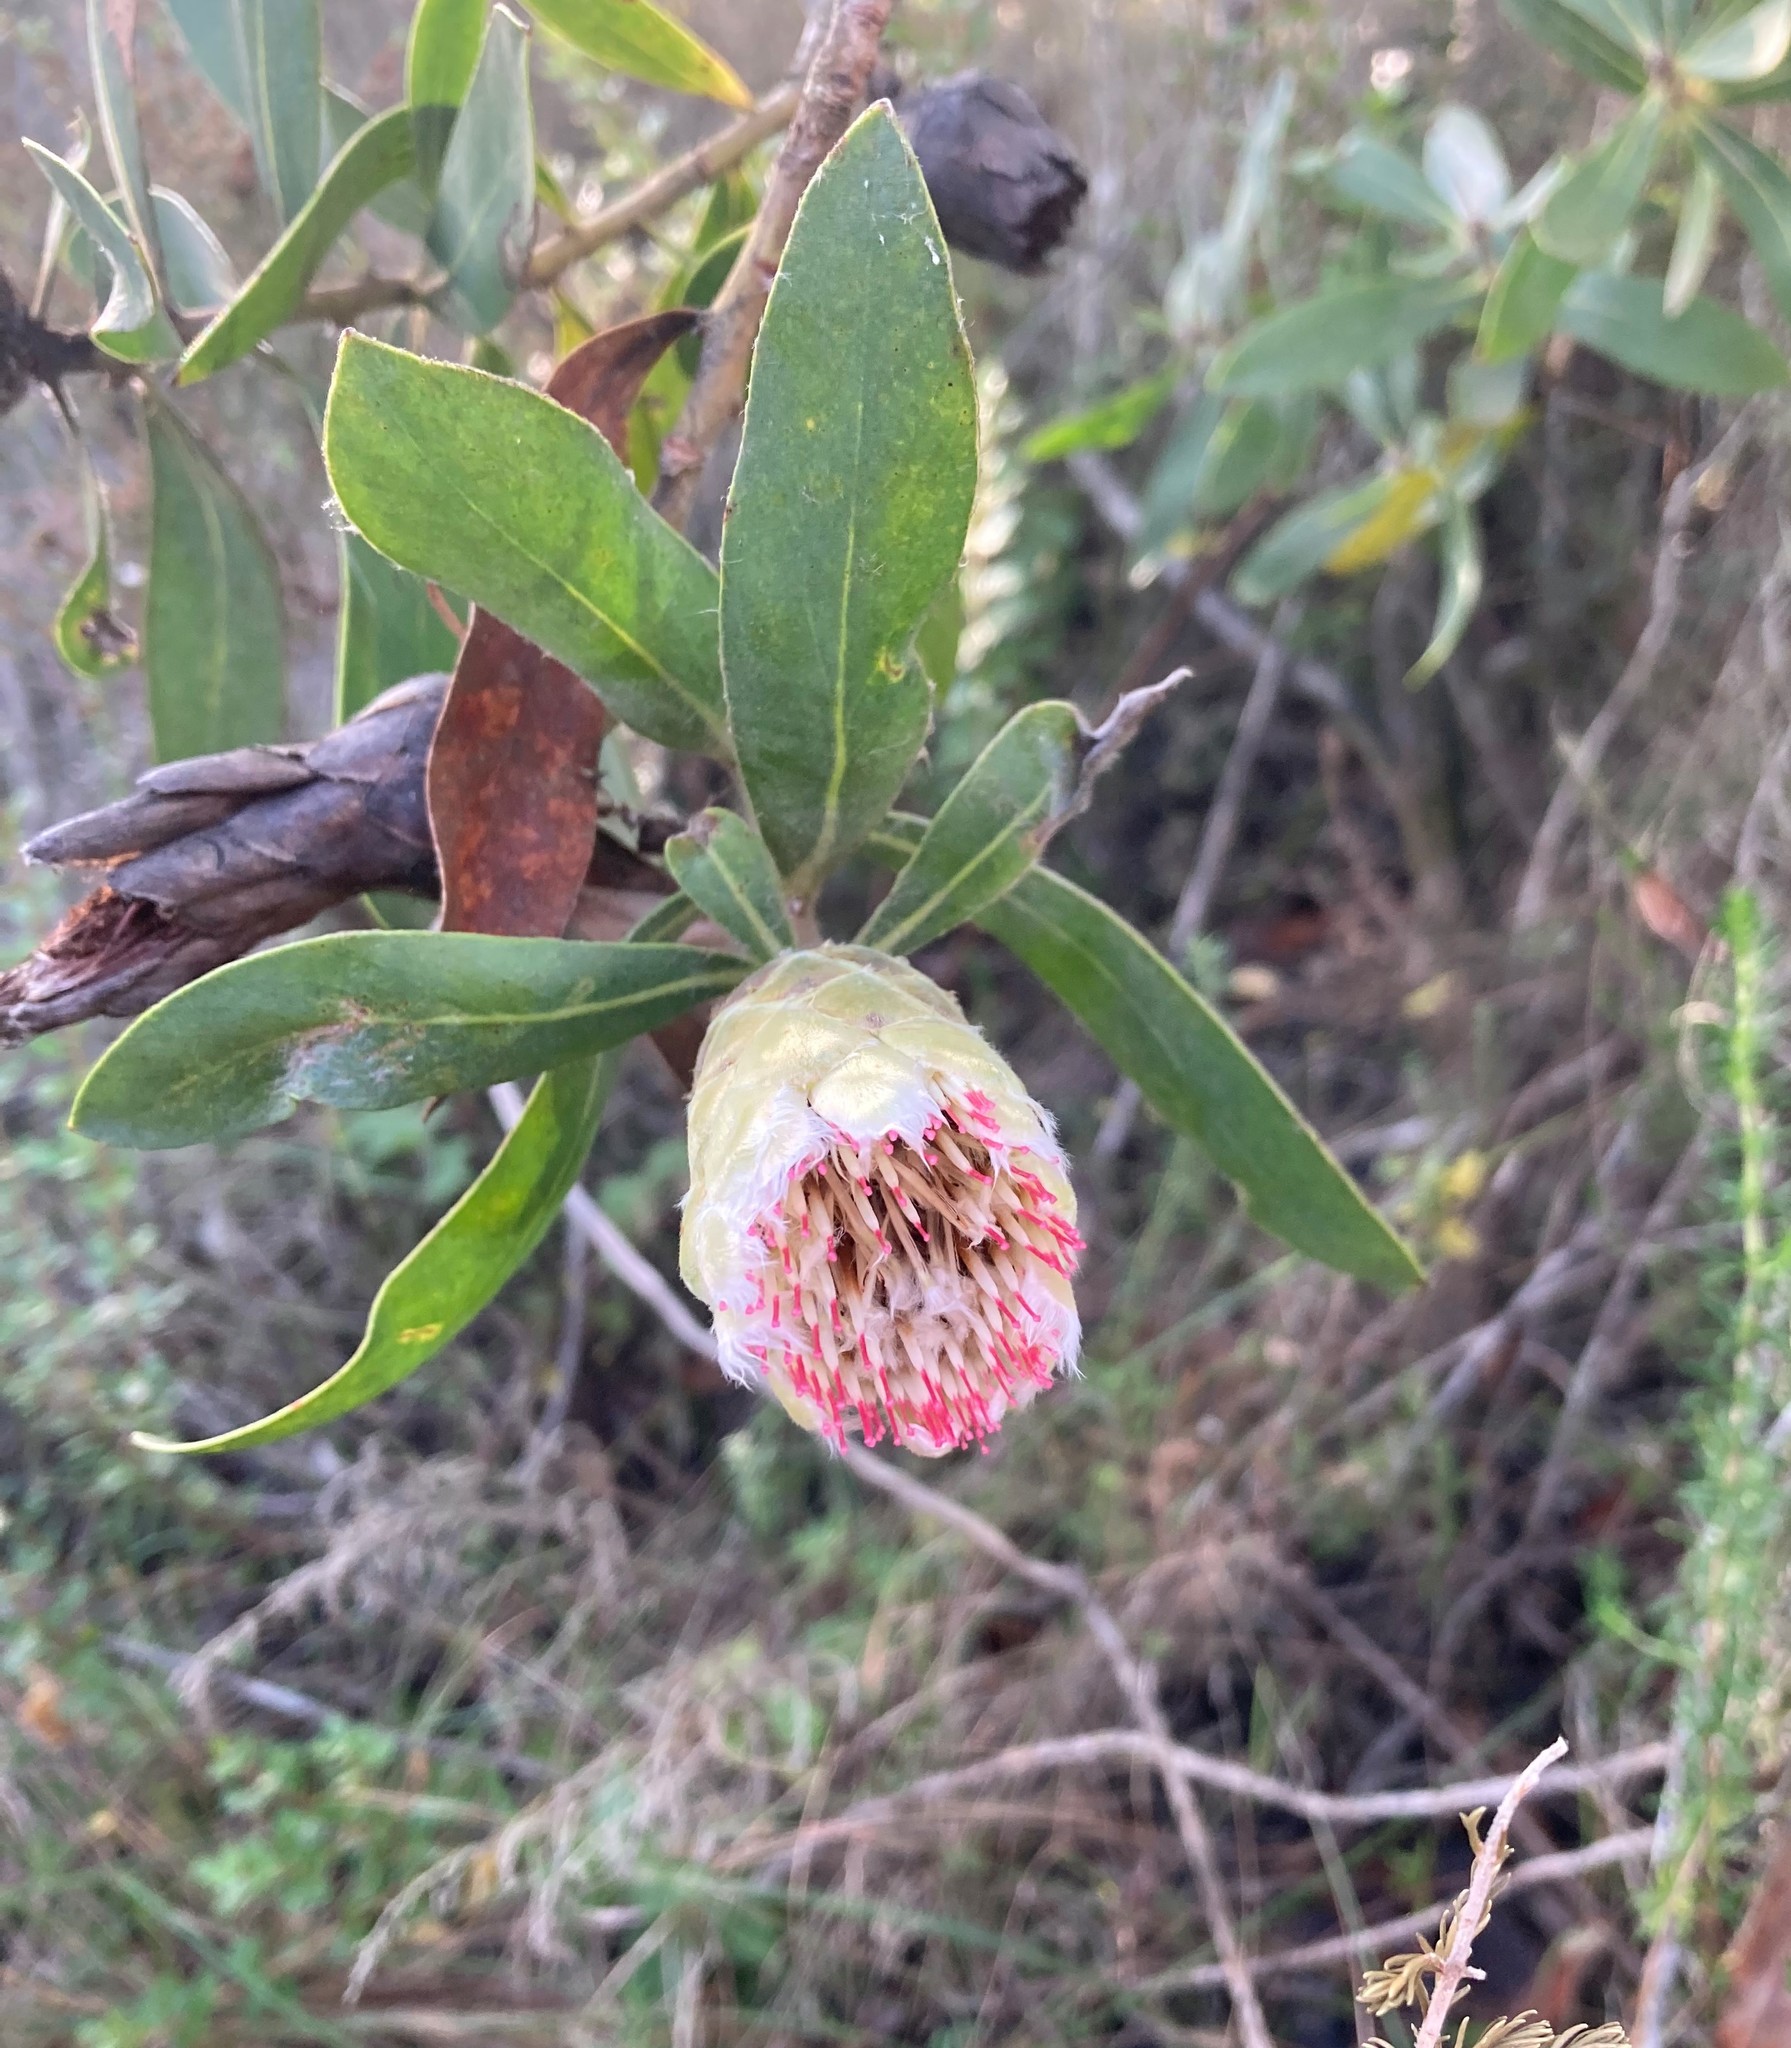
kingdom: Plantae
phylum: Tracheophyta
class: Magnoliopsida
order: Proteales
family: Proteaceae
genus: Protea
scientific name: Protea mundii
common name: Forest sugarbush
